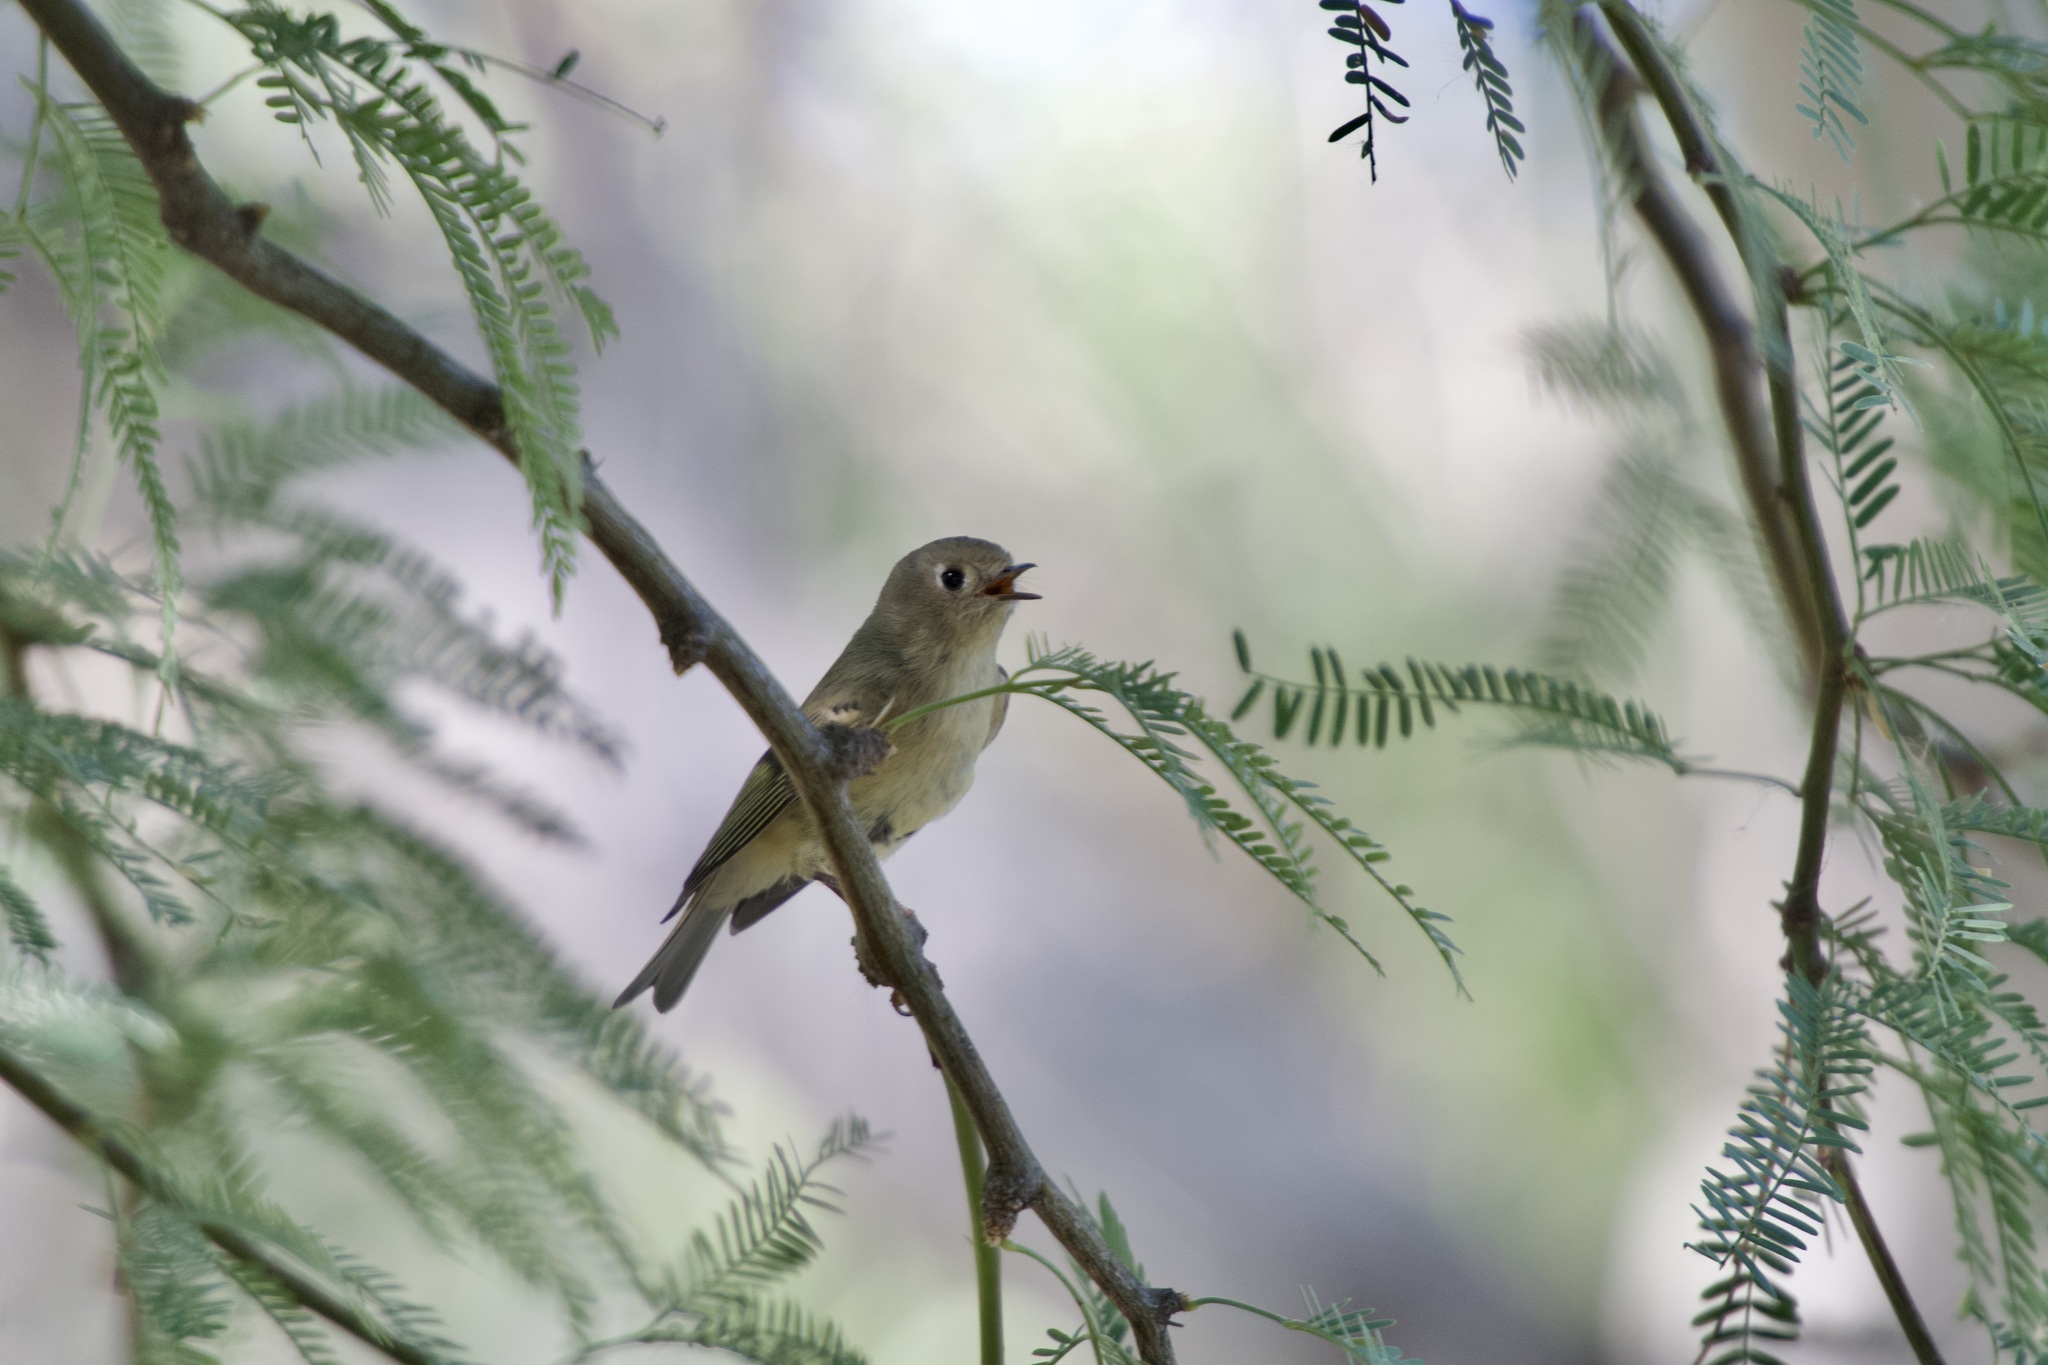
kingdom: Animalia
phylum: Chordata
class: Aves
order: Passeriformes
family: Regulidae
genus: Regulus
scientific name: Regulus calendula
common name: Ruby-crowned kinglet
